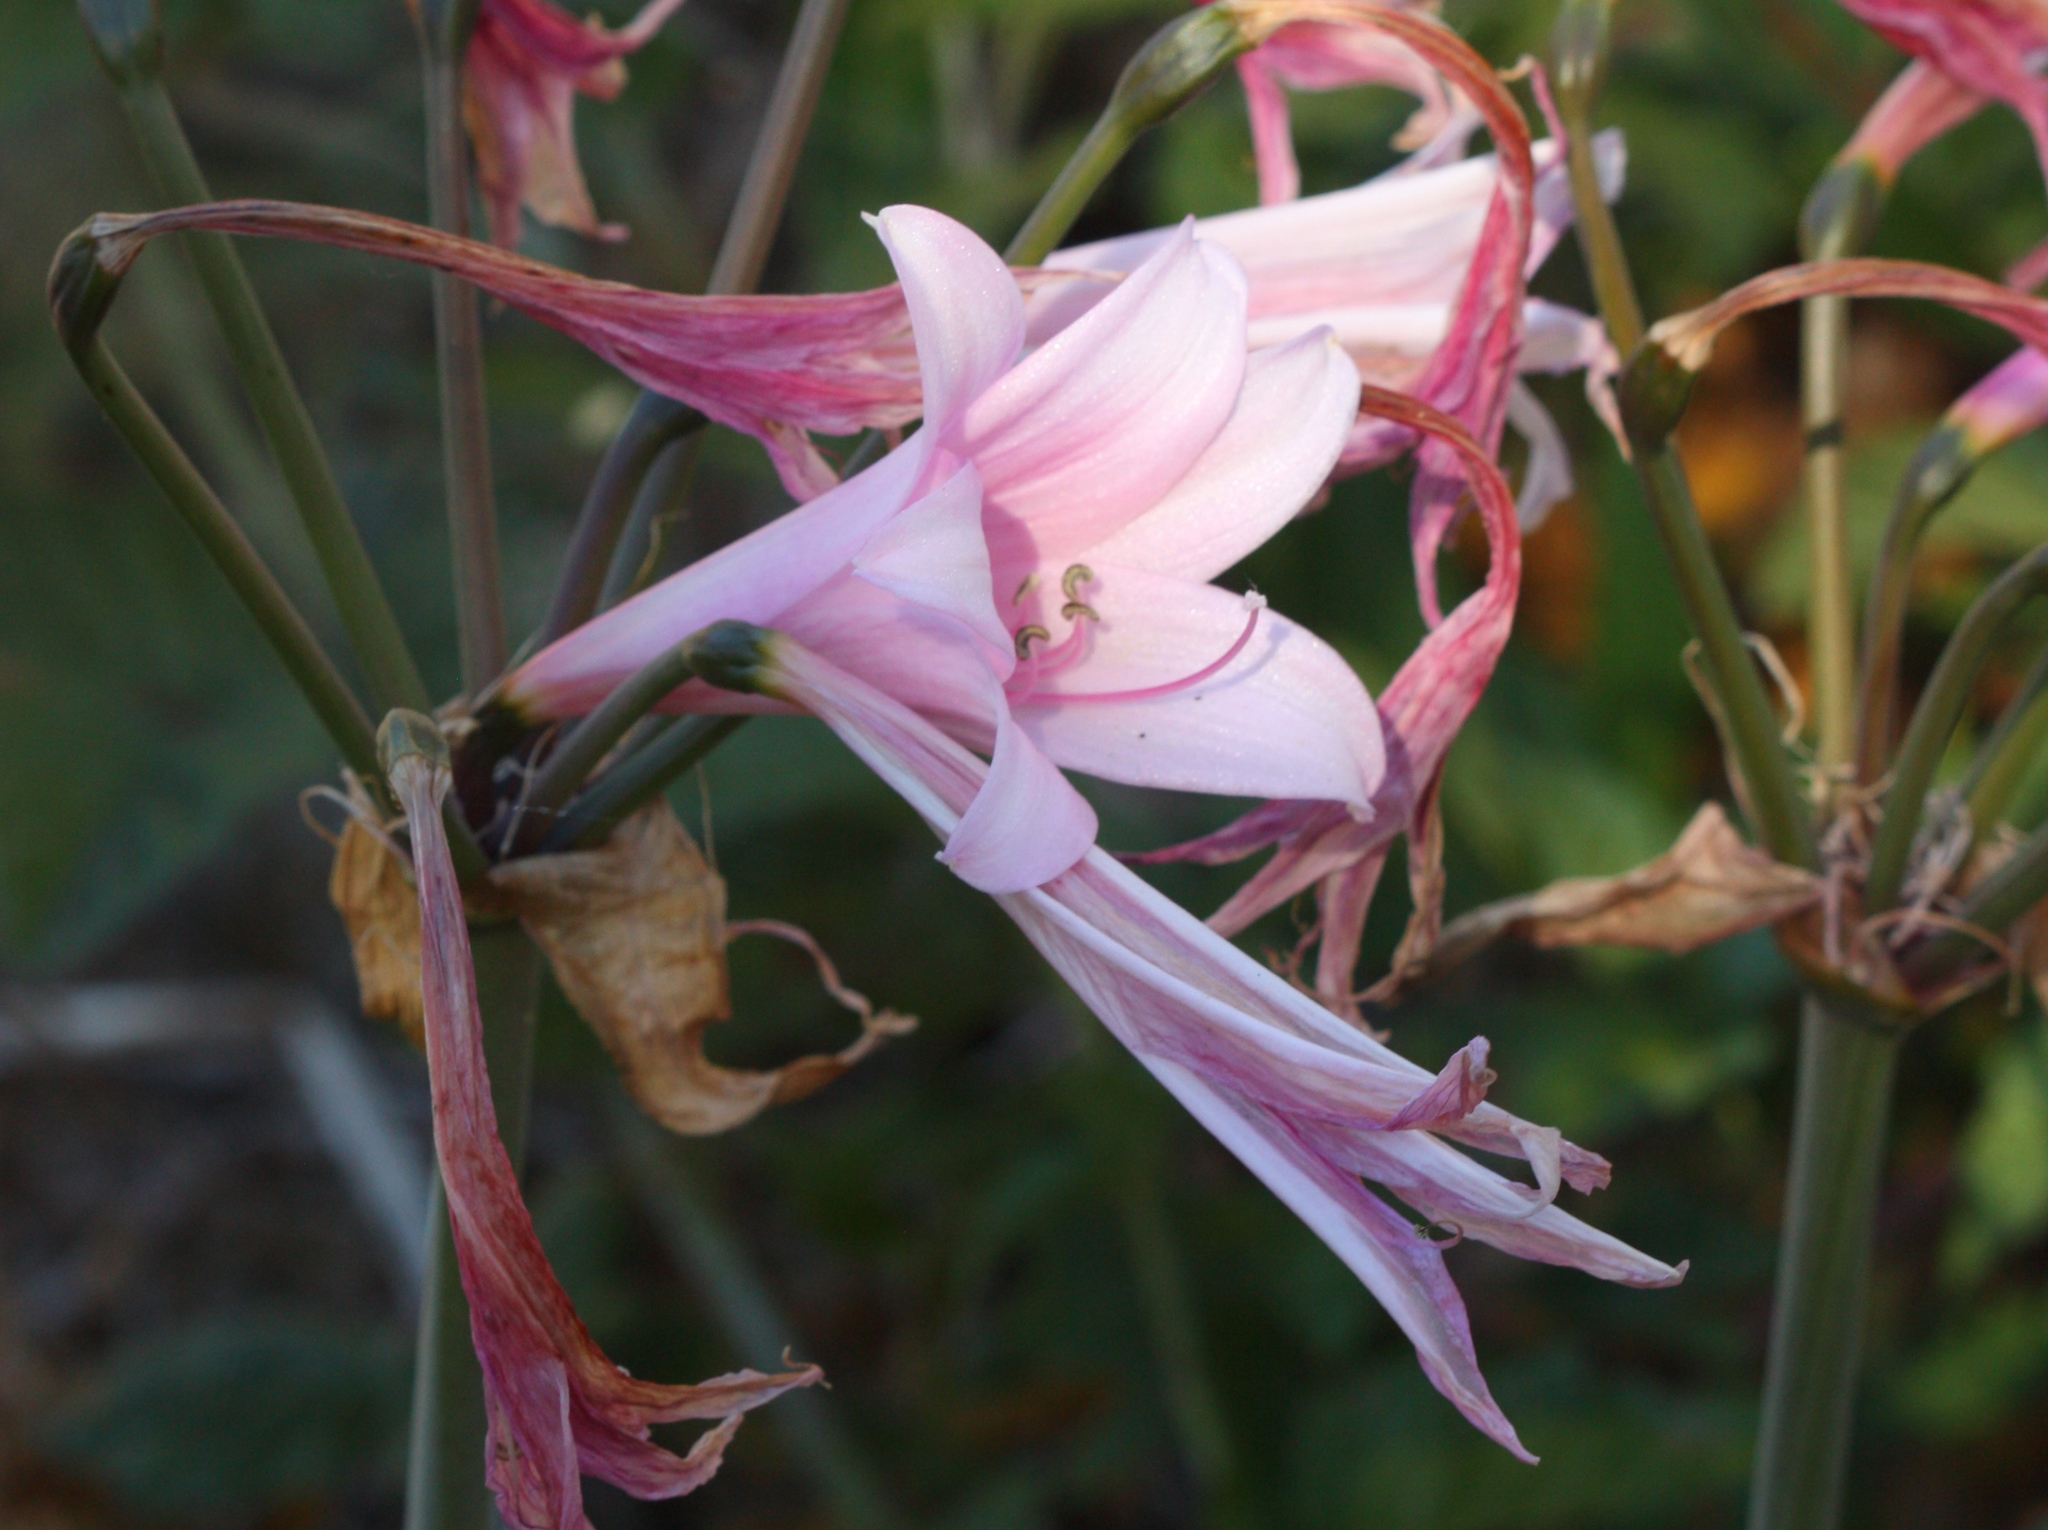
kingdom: Plantae
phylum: Tracheophyta
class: Liliopsida
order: Asparagales
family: Amaryllidaceae
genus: Amaryllis
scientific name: Amaryllis belladonna
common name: Jersey lily
